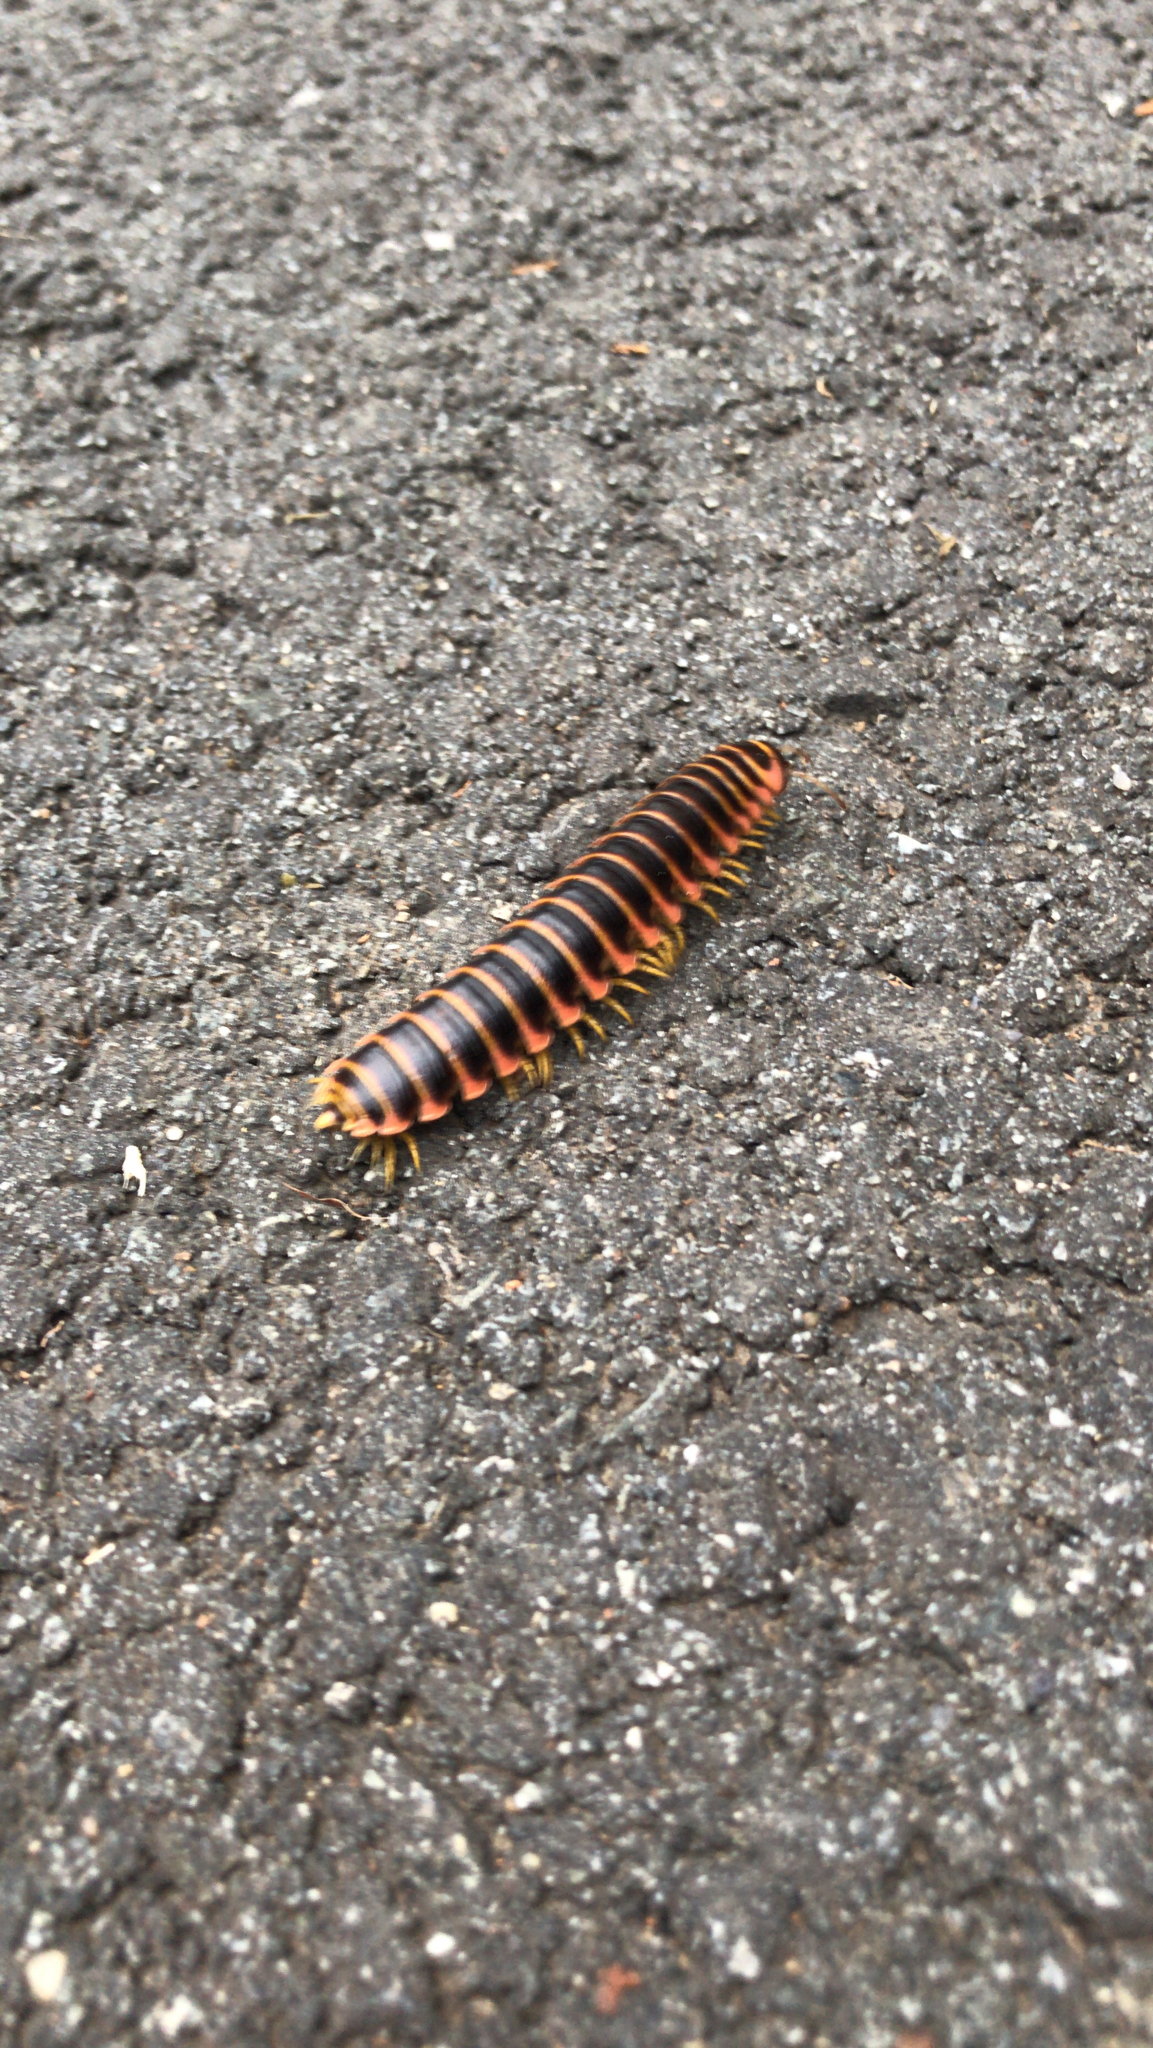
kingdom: Animalia
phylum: Arthropoda
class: Diplopoda
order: Polydesmida
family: Xystodesmidae
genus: Apheloria
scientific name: Apheloria virginiensis
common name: Black-and-gold flat millipede
